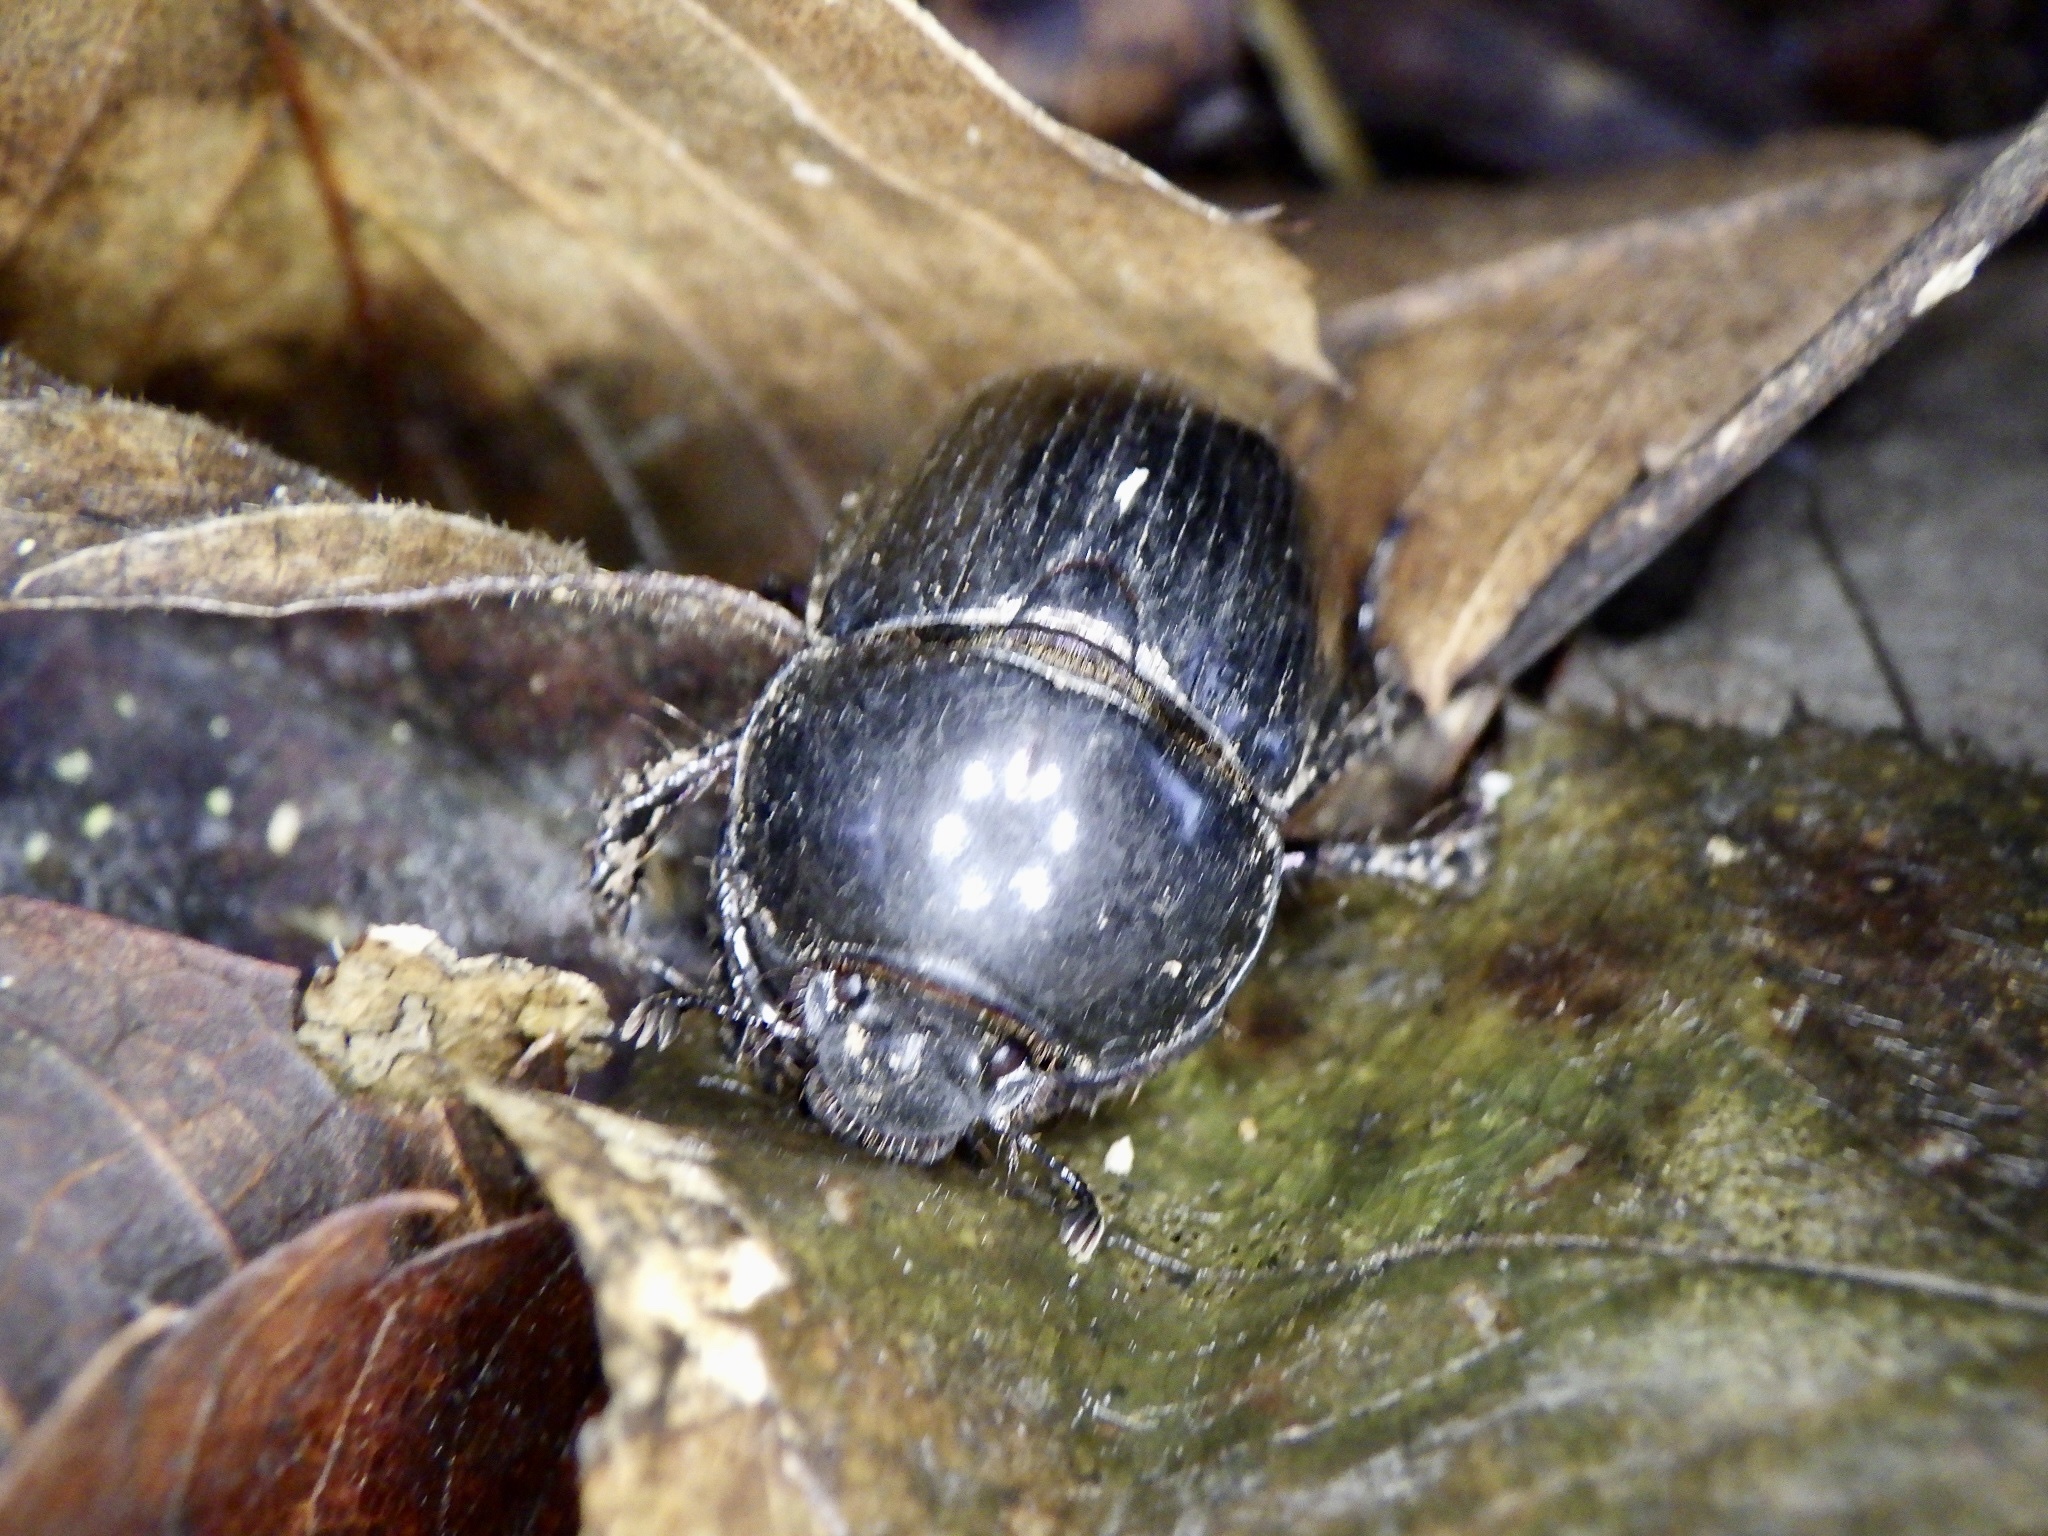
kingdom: Animalia
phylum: Arthropoda
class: Insecta
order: Coleoptera
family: Geotrupidae
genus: Phelotrupes
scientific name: Phelotrupes laevistriatus
